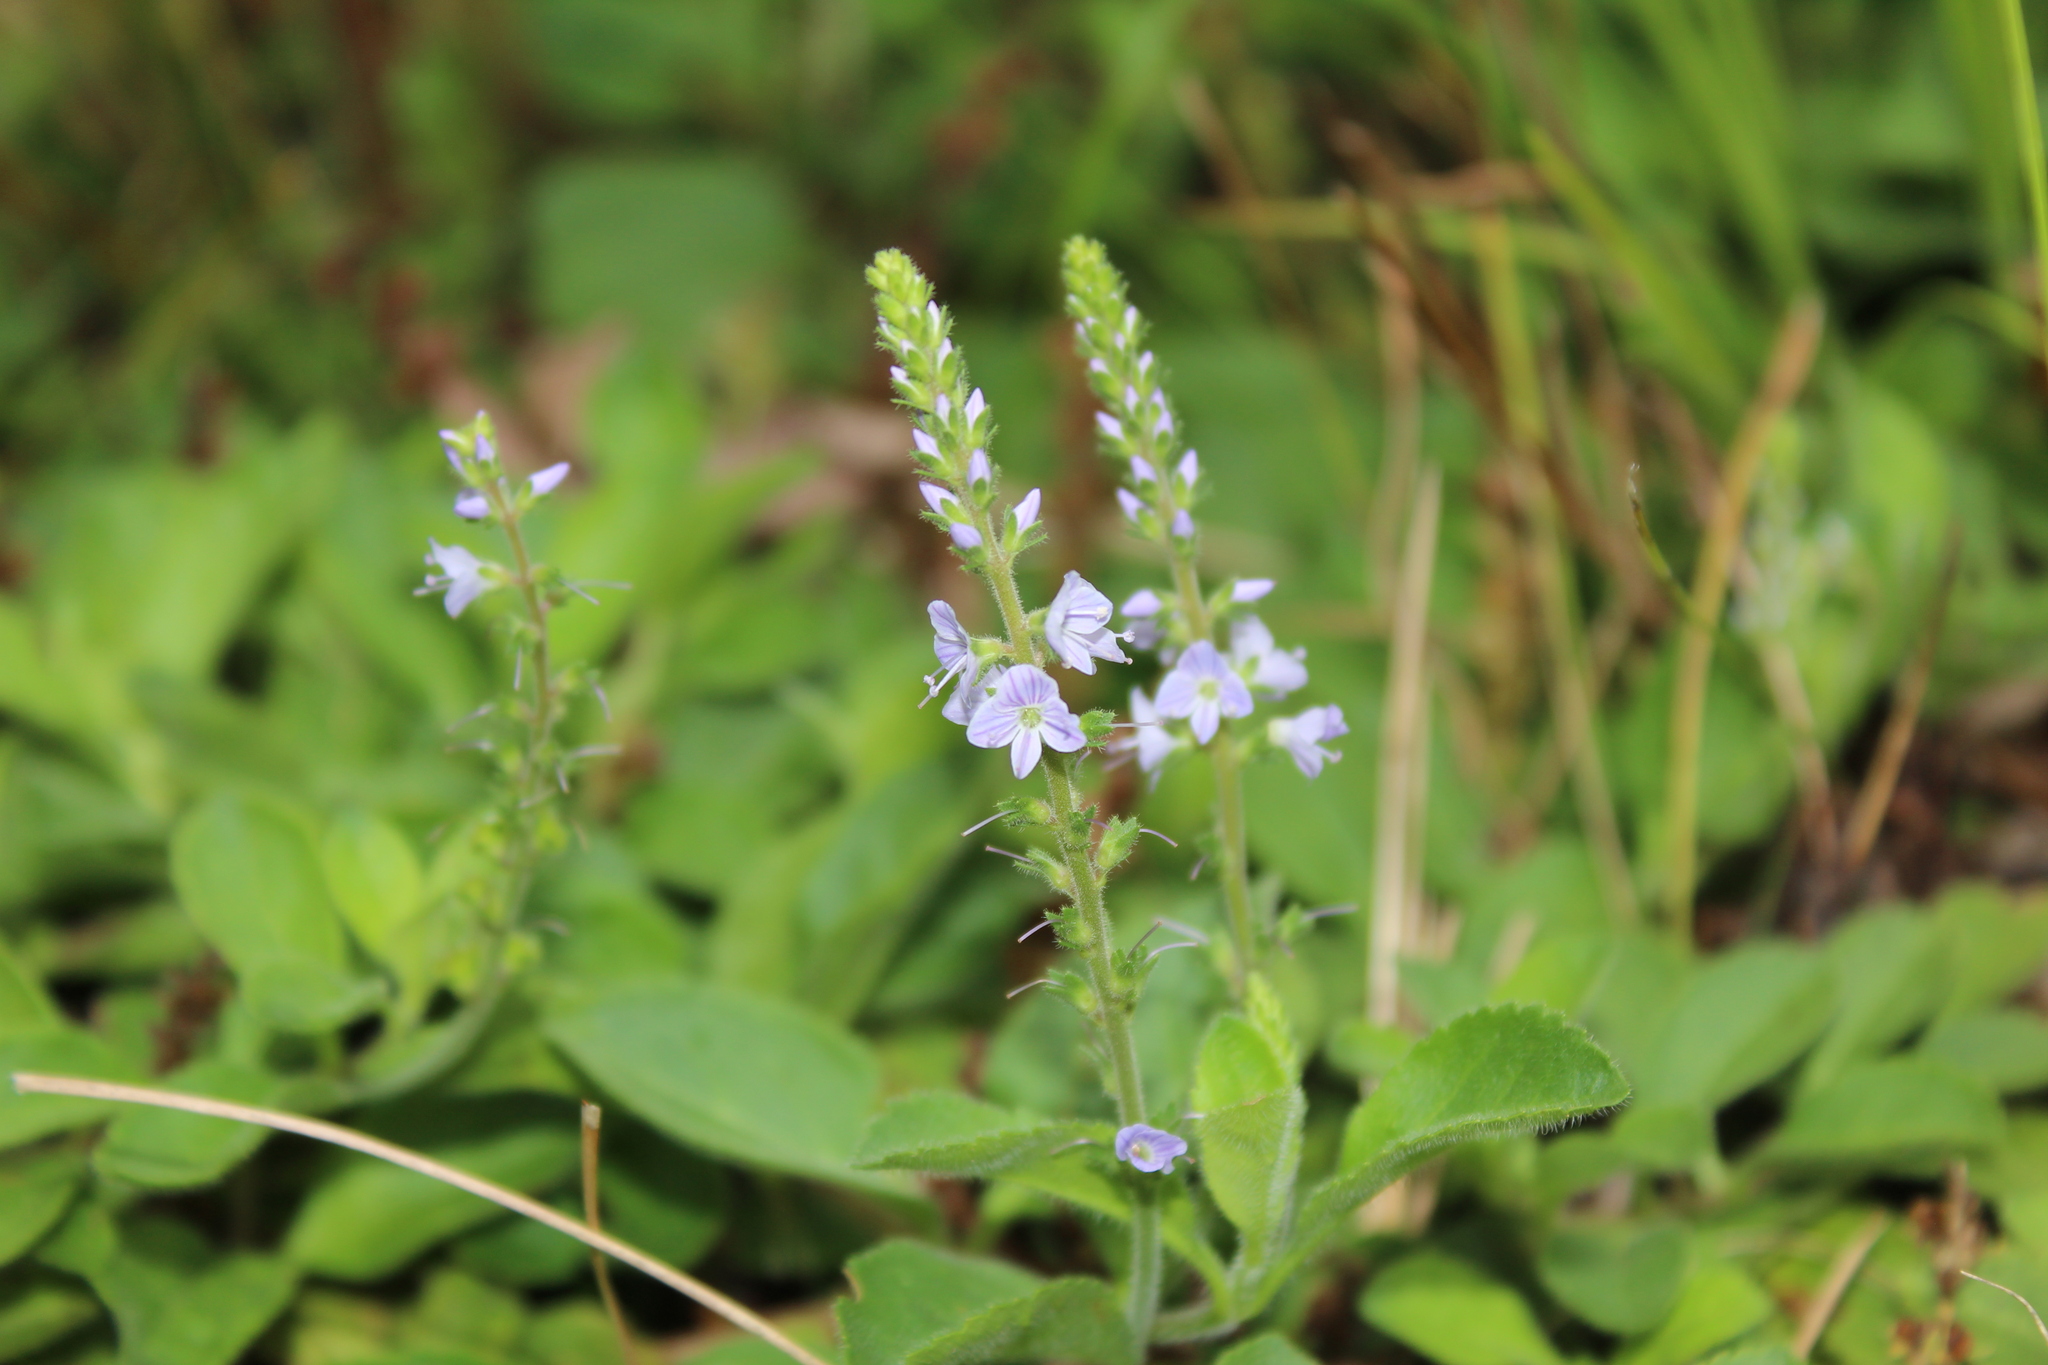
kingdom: Plantae
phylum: Tracheophyta
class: Magnoliopsida
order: Lamiales
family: Plantaginaceae
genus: Veronica
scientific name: Veronica officinalis
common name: Common speedwell
